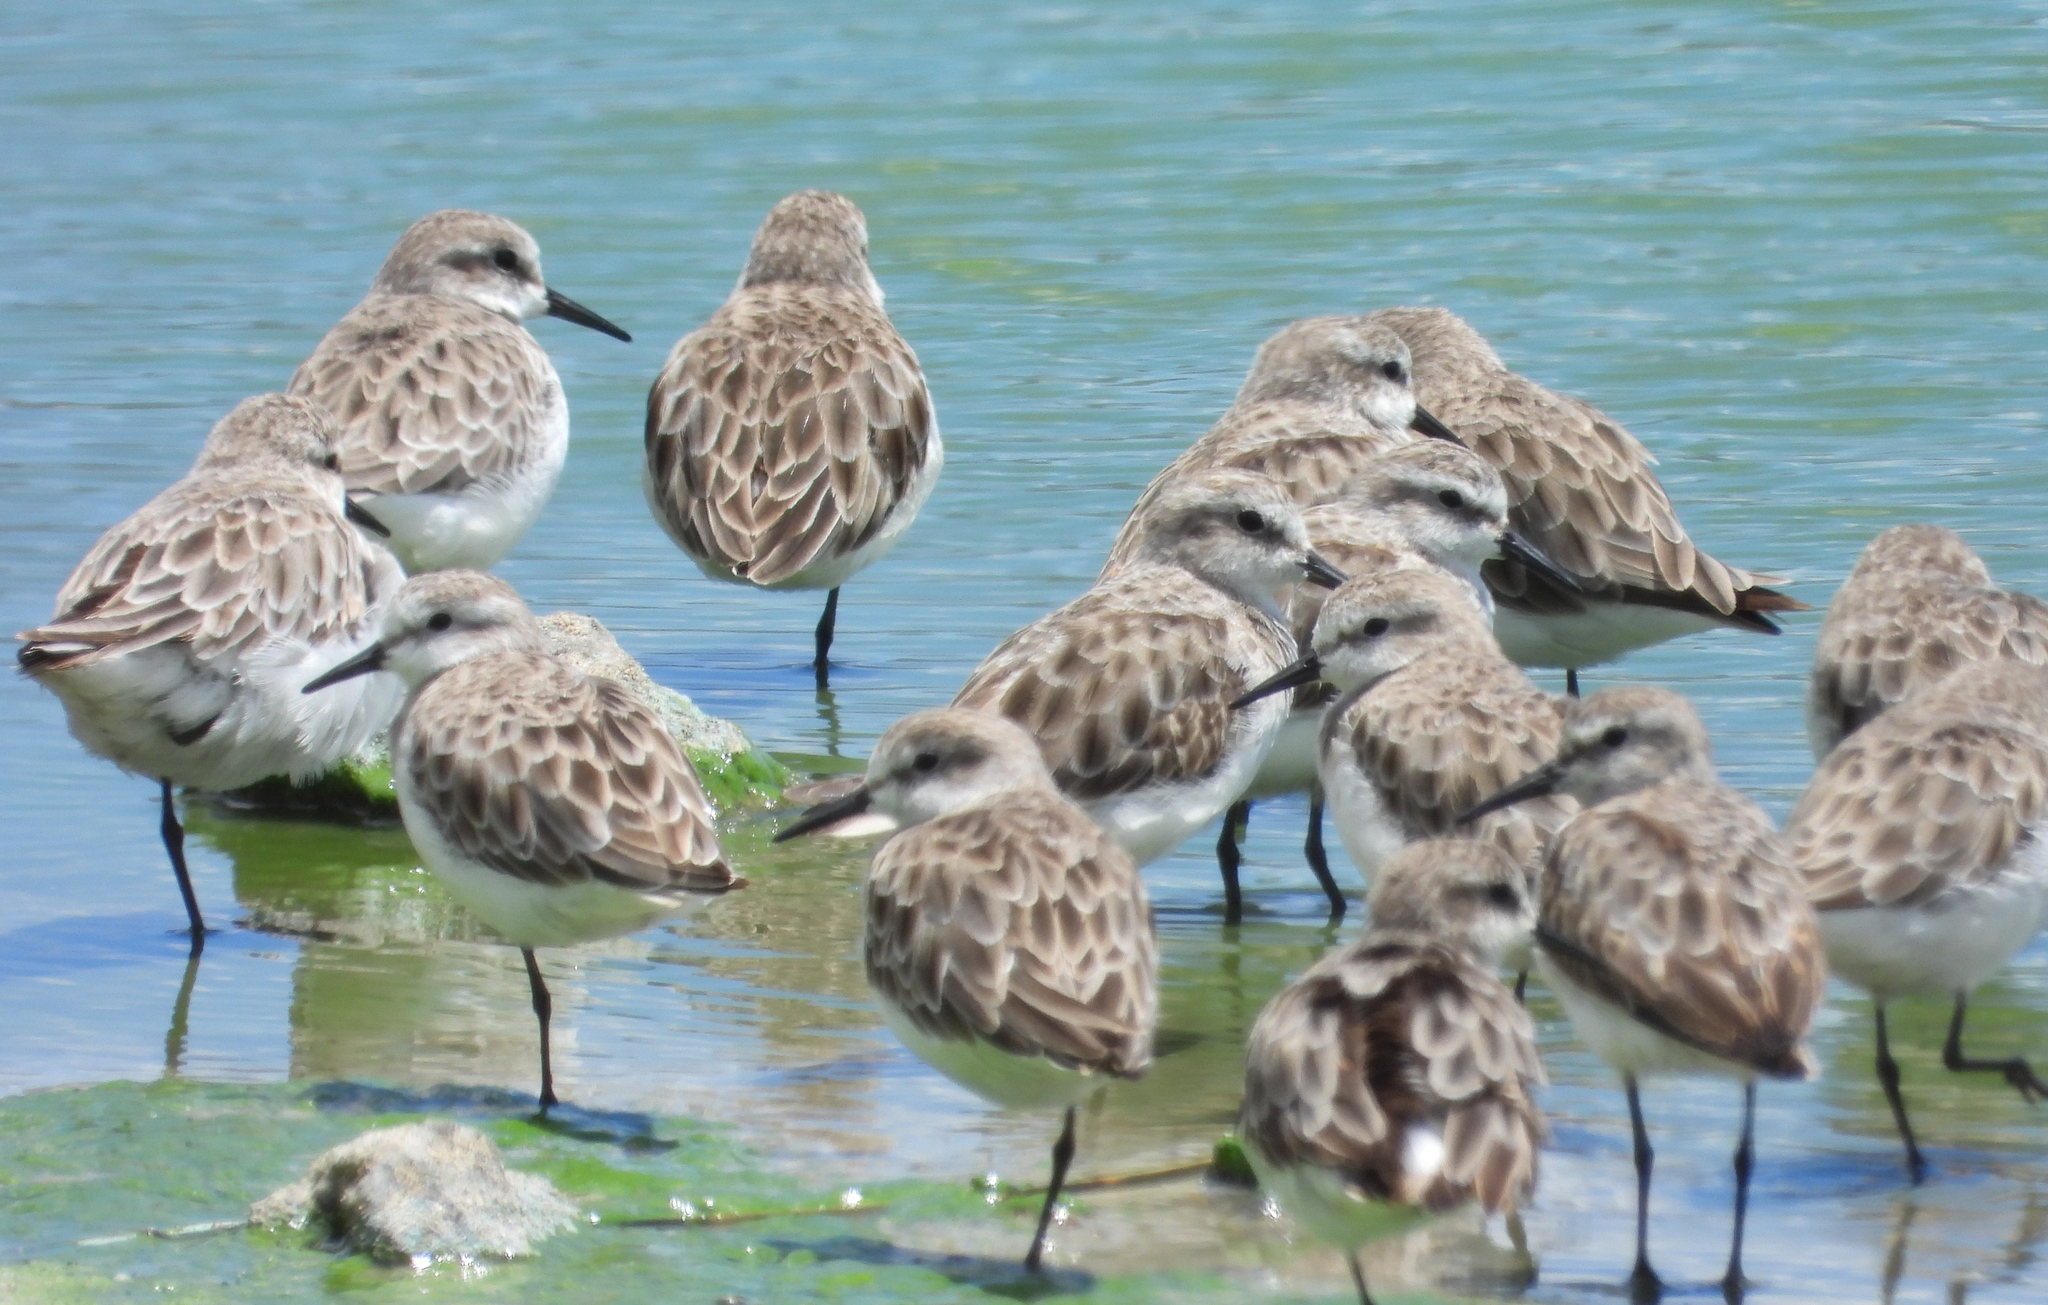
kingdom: Animalia
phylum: Chordata
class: Aves
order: Charadriiformes
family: Scolopacidae
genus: Calidris
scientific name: Calidris minuta
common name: Little stint
